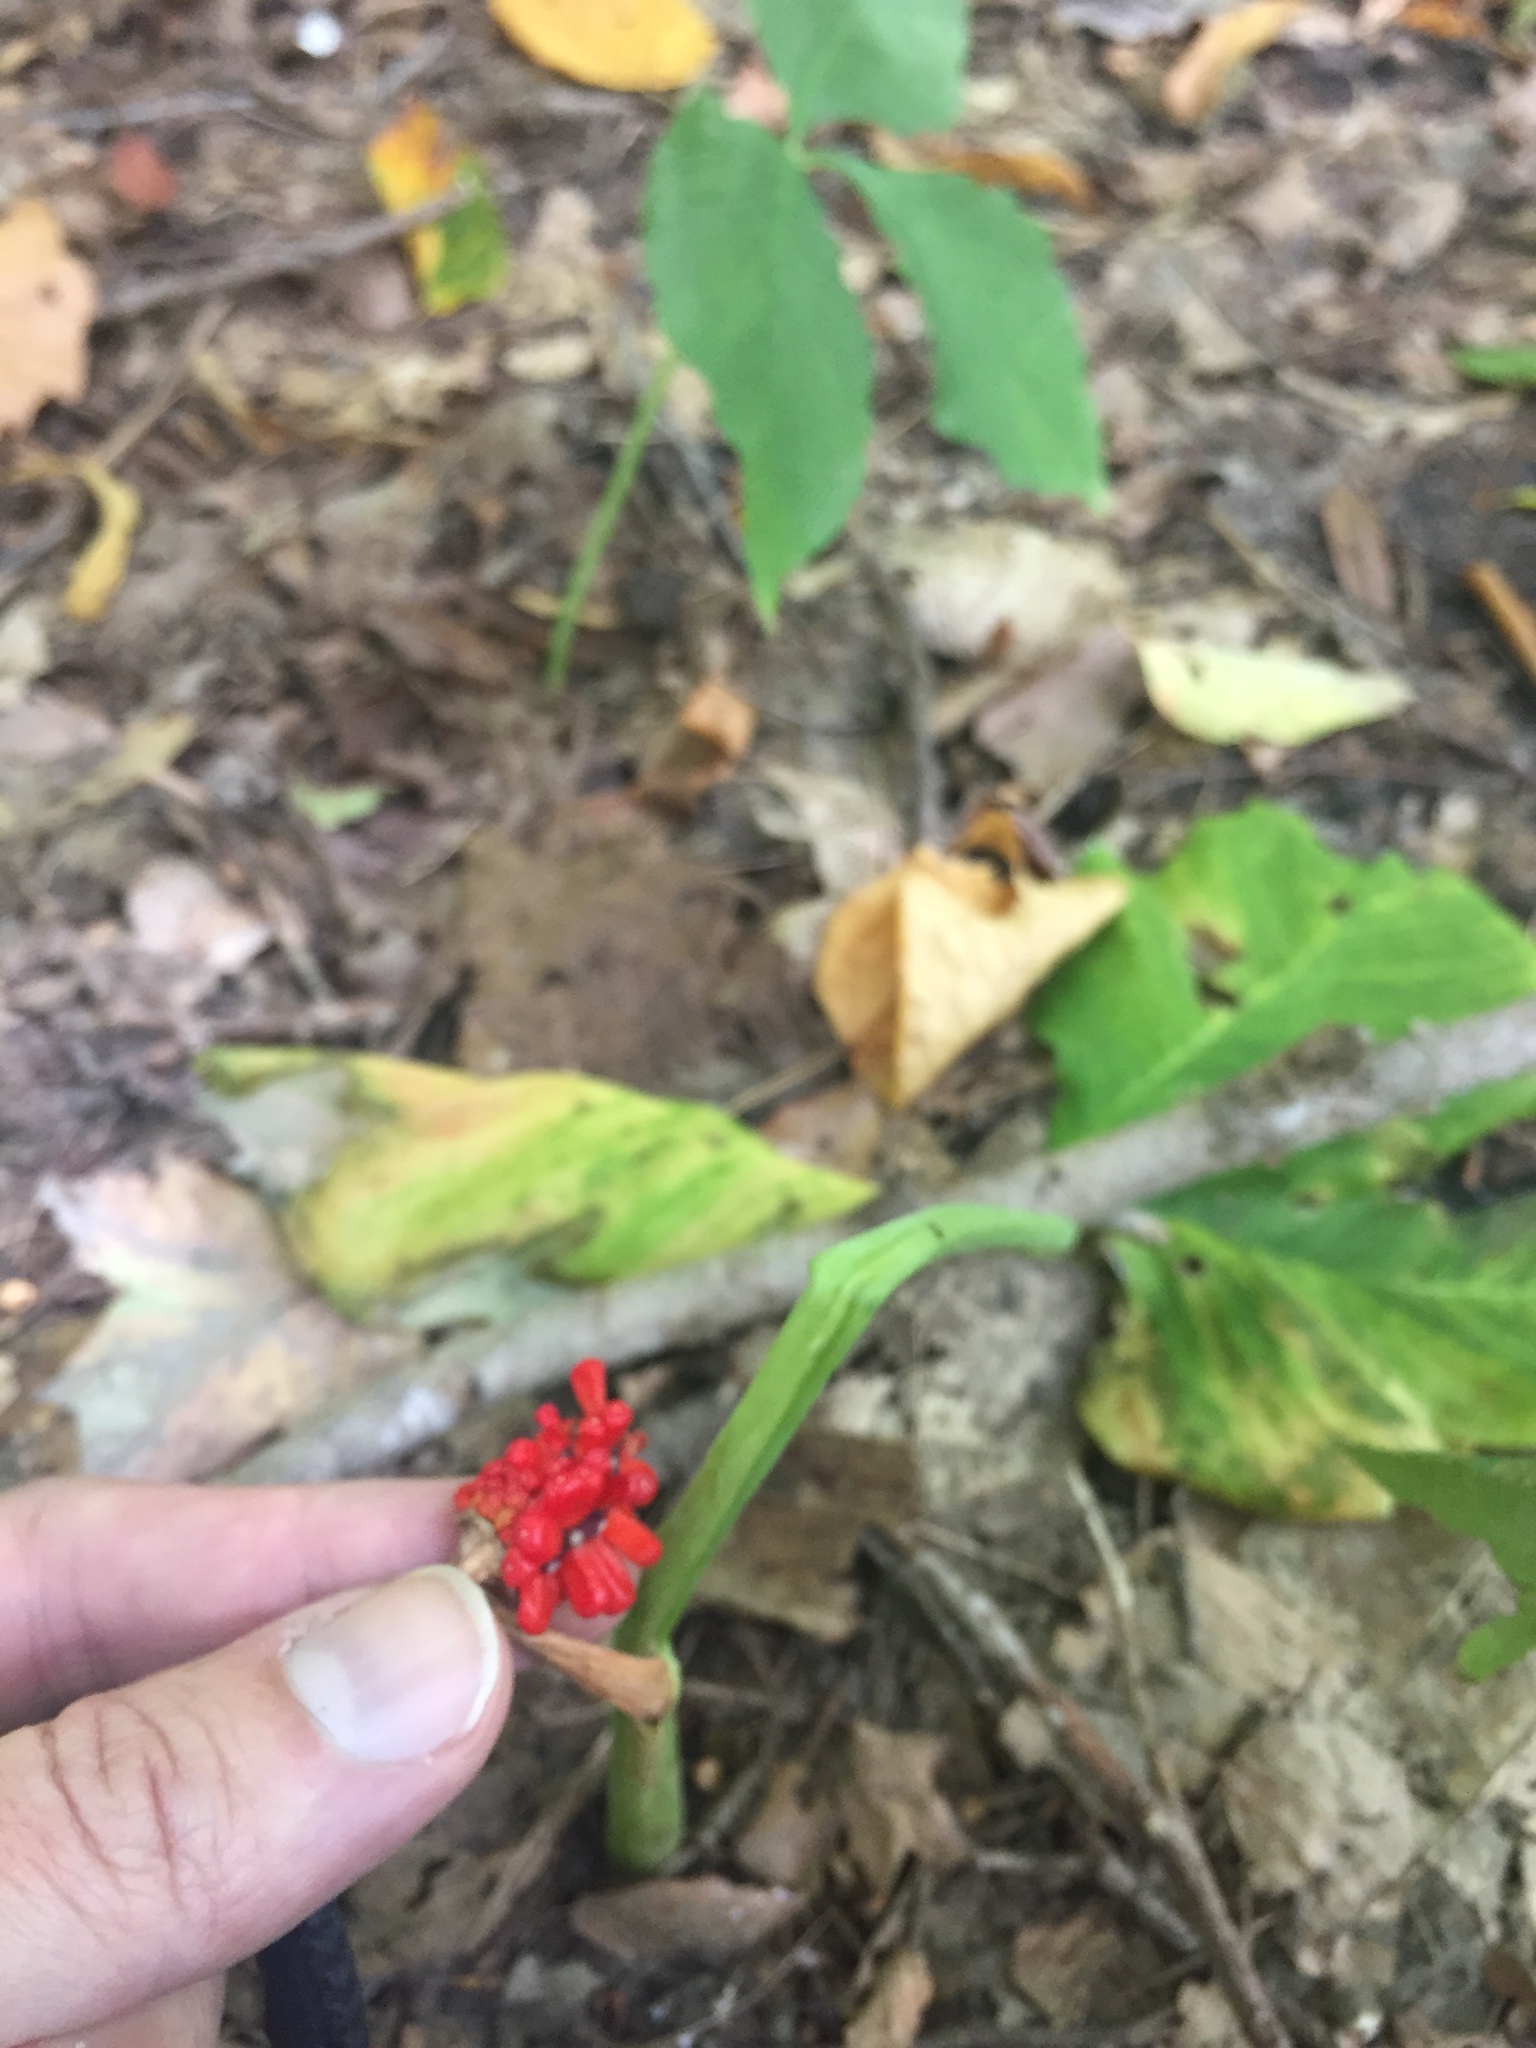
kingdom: Plantae
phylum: Tracheophyta
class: Liliopsida
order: Alismatales
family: Araceae
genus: Arisaema
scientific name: Arisaema triphyllum
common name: Jack-in-the-pulpit
